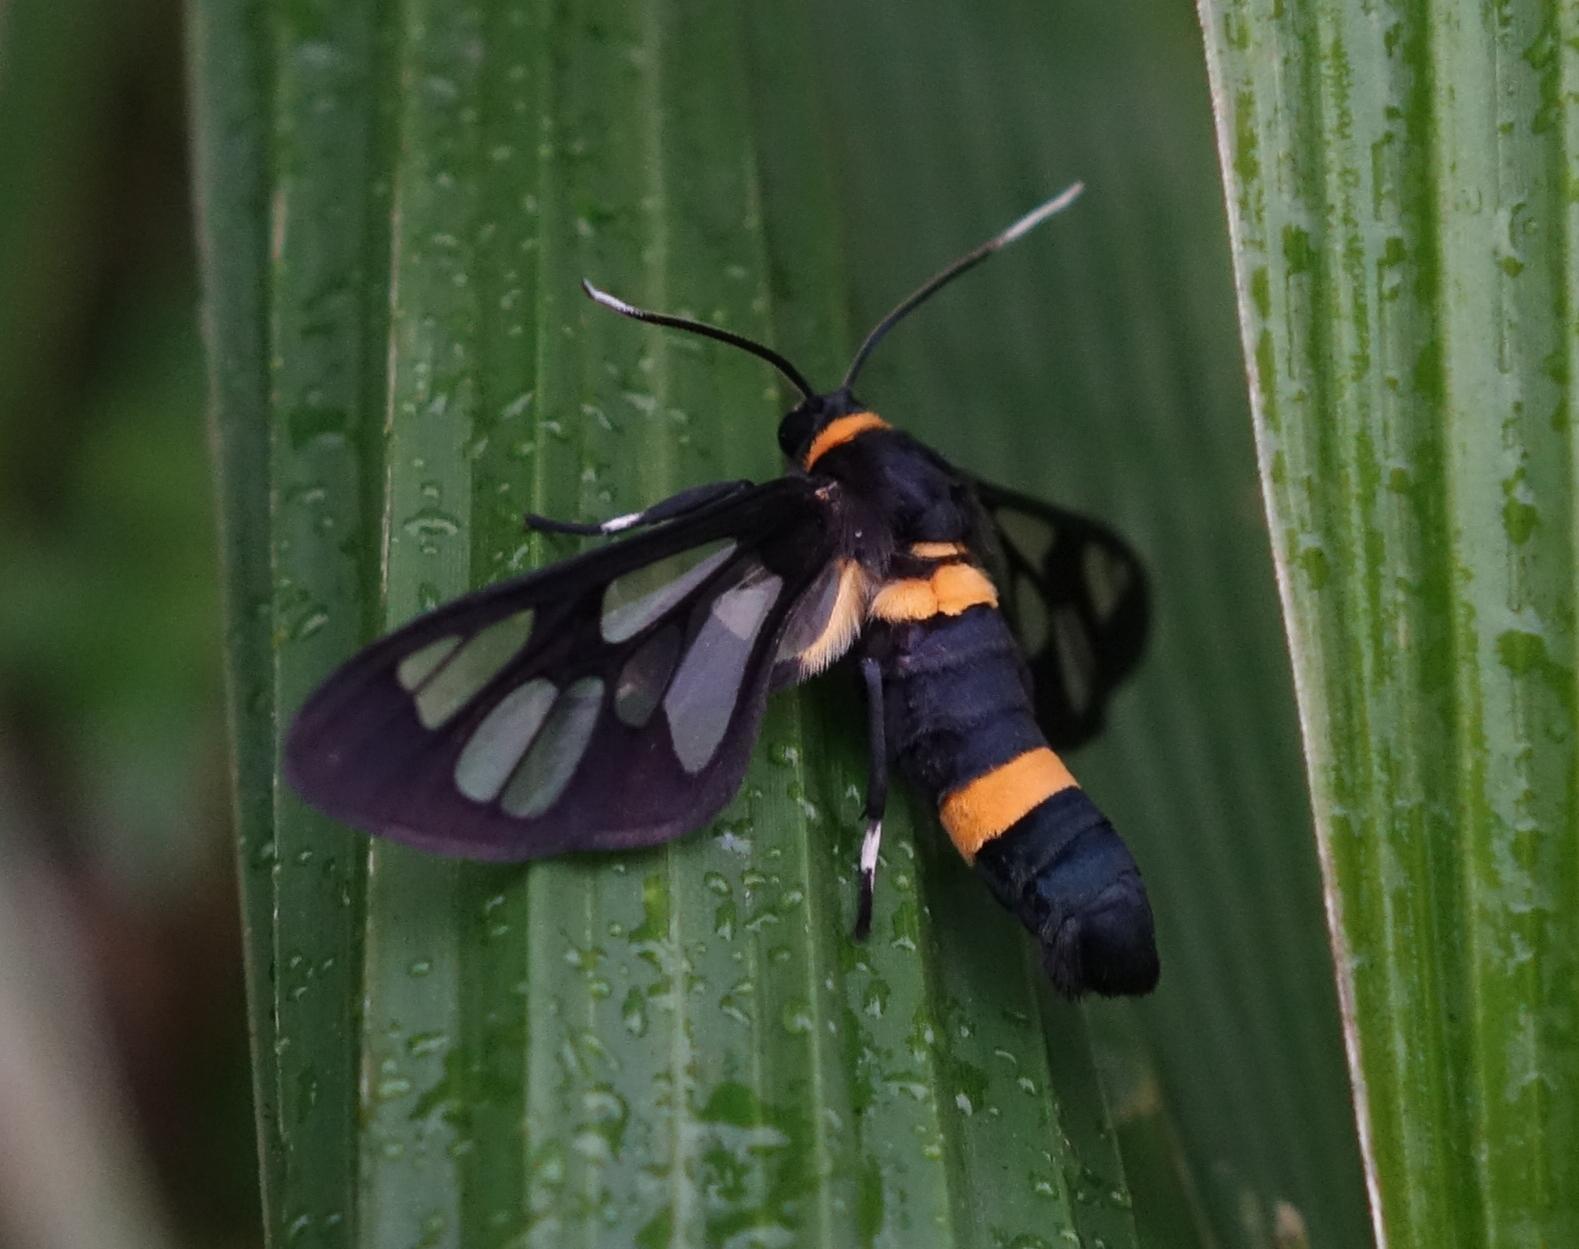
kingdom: Animalia
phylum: Arthropoda
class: Insecta
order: Lepidoptera
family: Erebidae
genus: Syntomoides
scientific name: Syntomoides imaon
